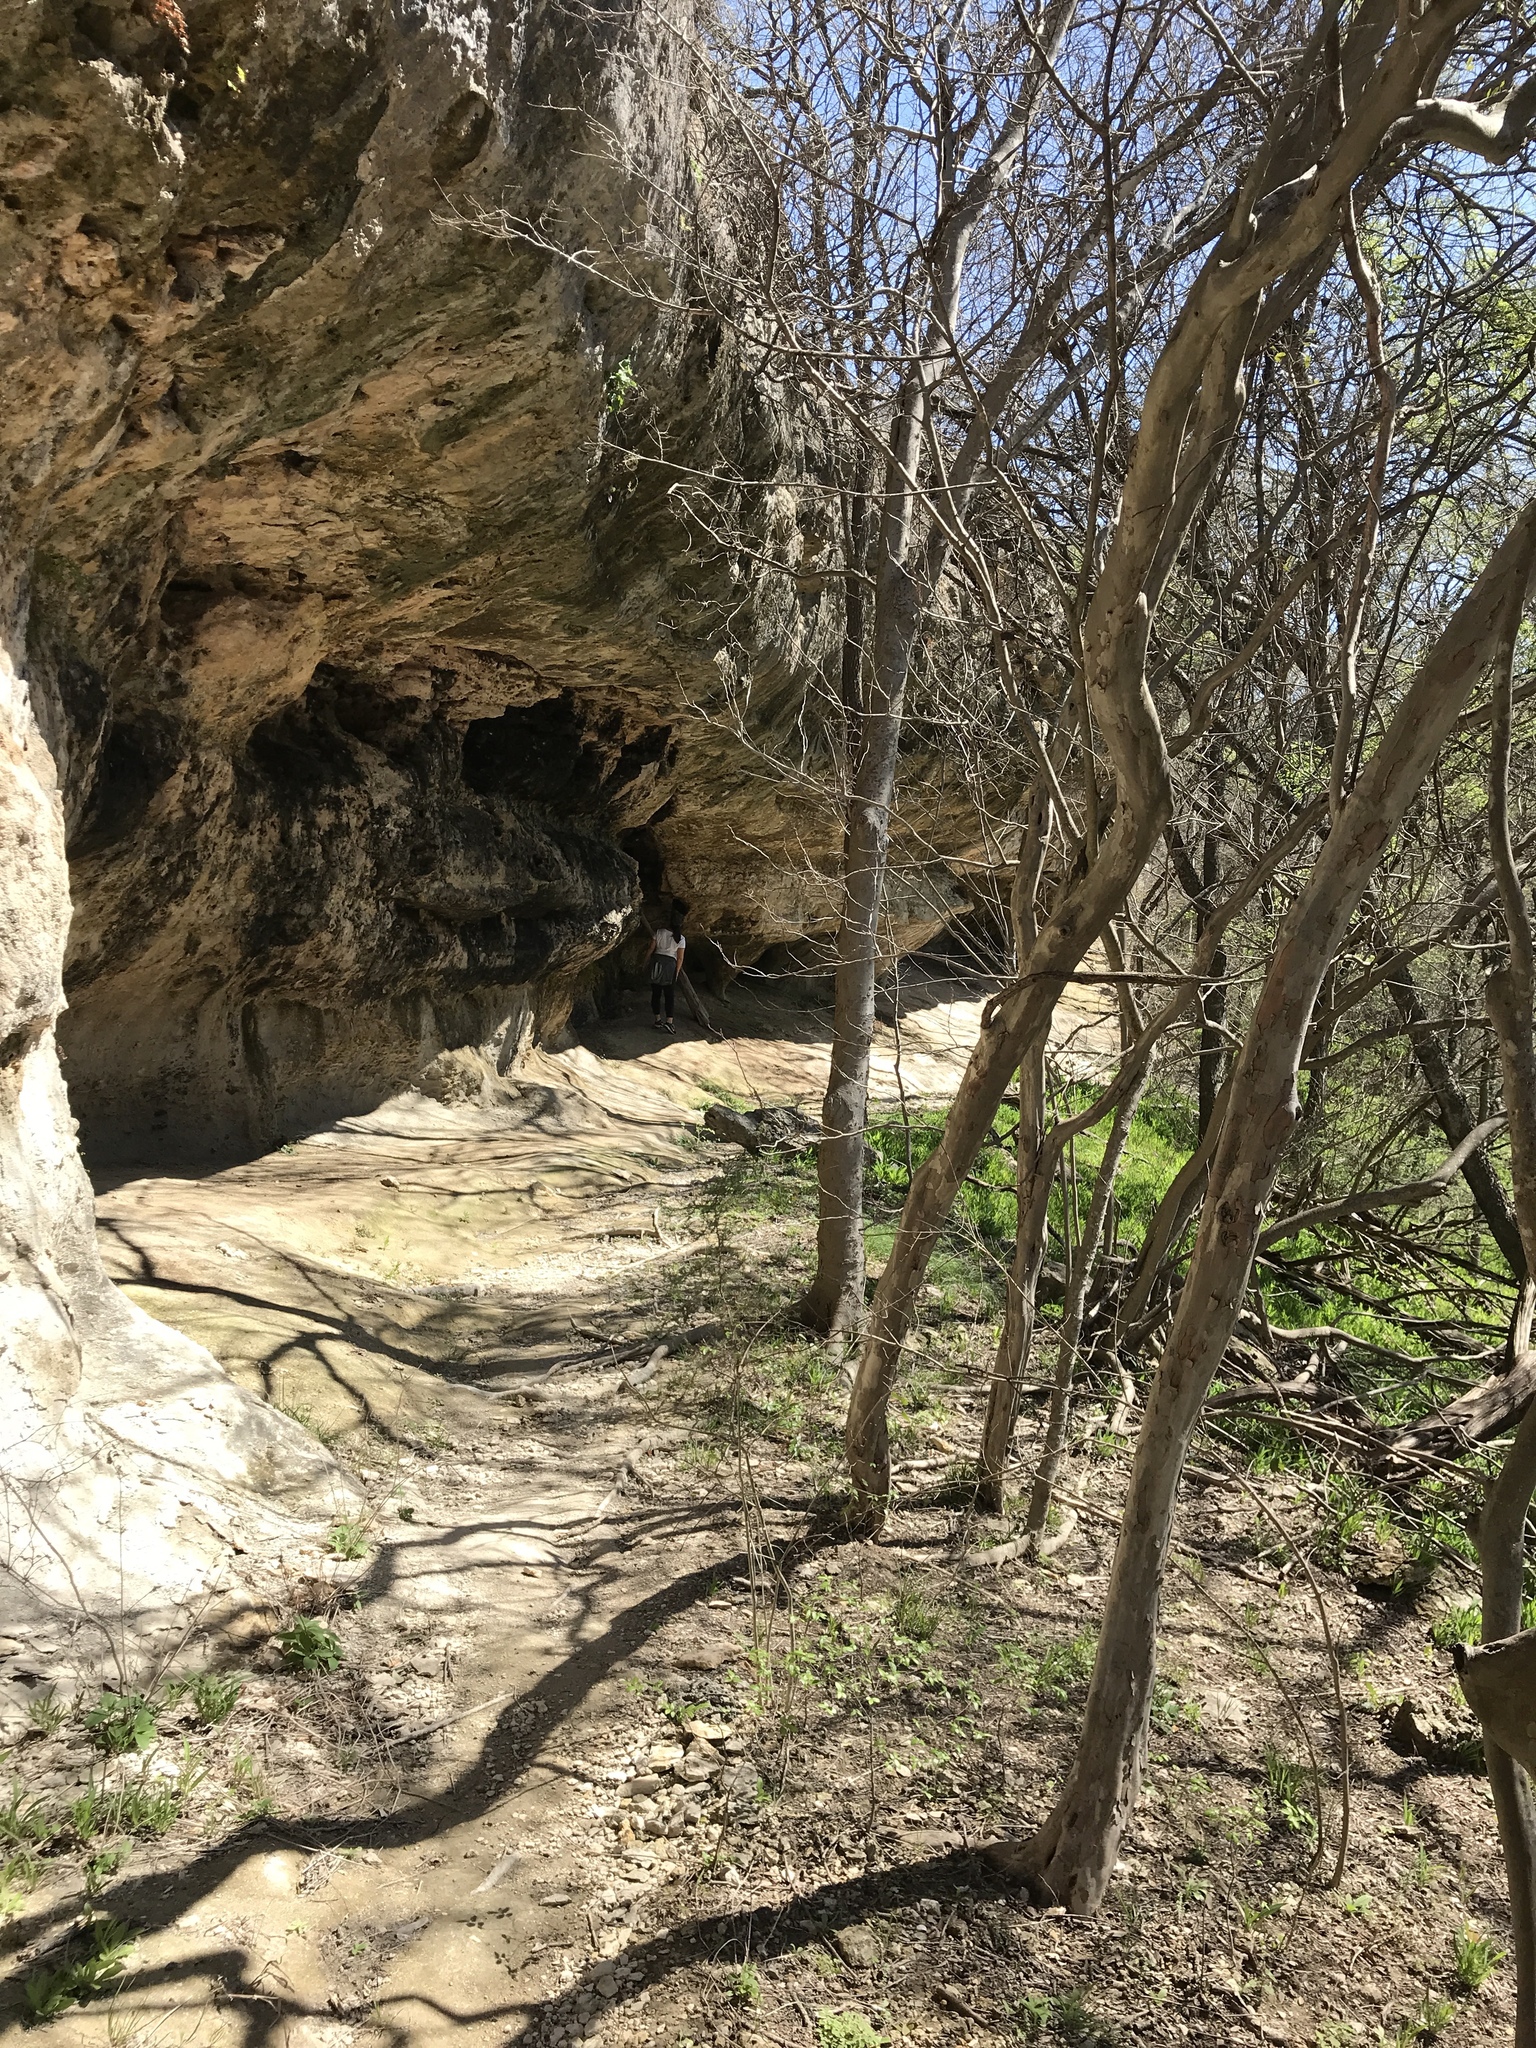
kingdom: Plantae
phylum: Tracheophyta
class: Polypodiopsida
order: Polypodiales
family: Pteridaceae
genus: Adiantum
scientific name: Adiantum capillus-veneris
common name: Maidenhair fern
